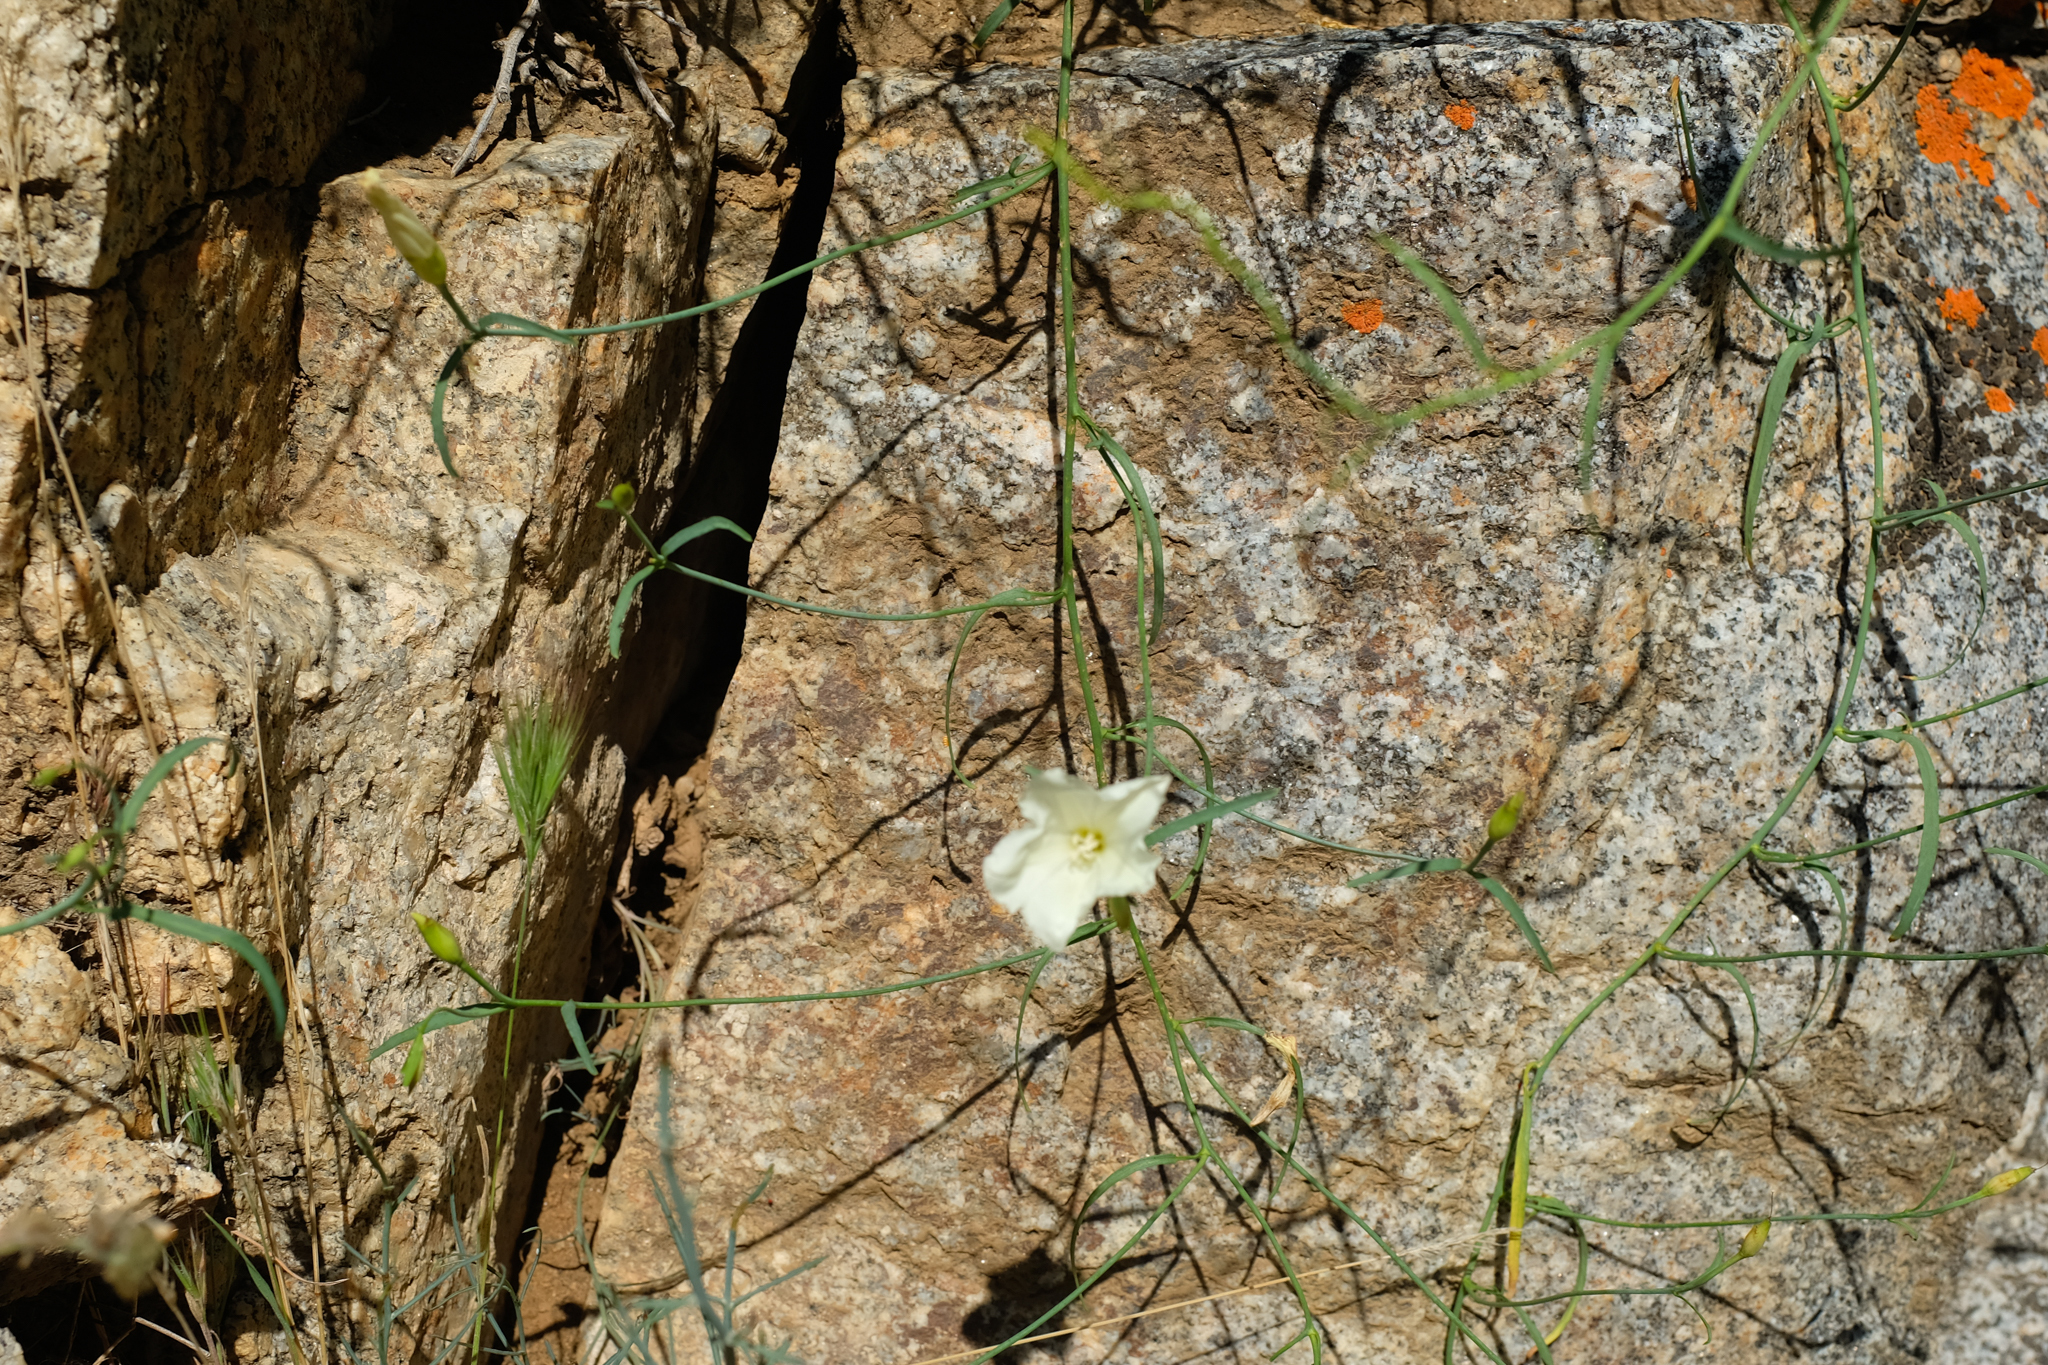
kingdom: Plantae
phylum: Tracheophyta
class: Magnoliopsida
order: Solanales
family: Convolvulaceae
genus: Calystegia
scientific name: Calystegia longipes
